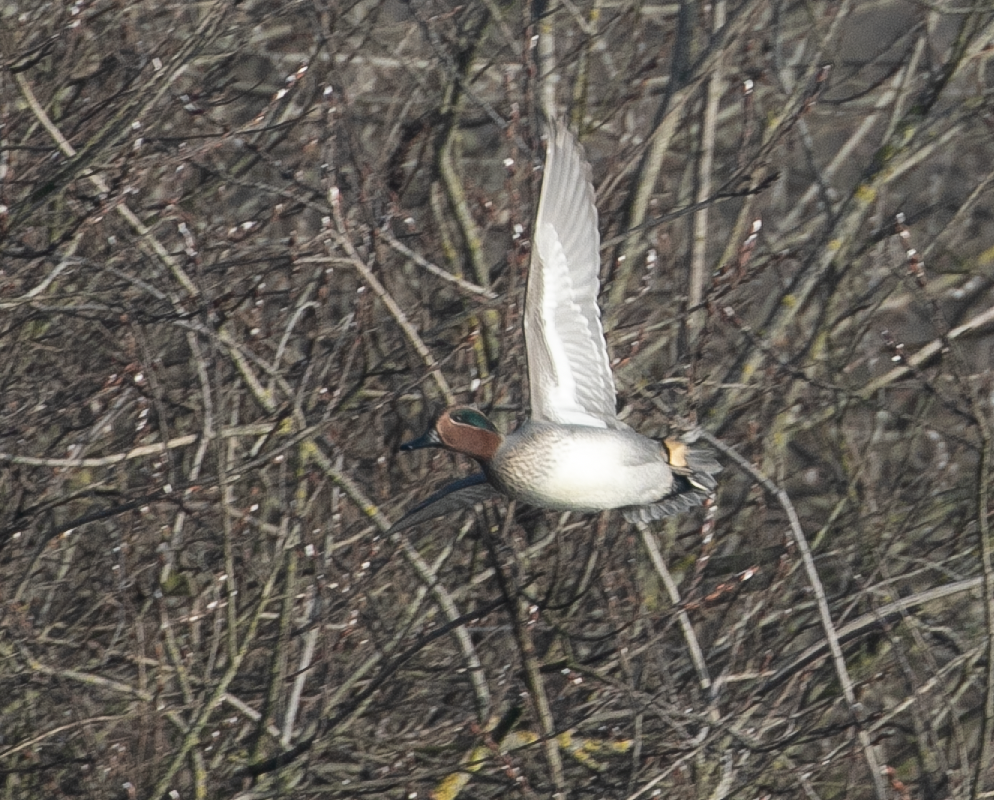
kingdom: Animalia
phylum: Chordata
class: Aves
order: Anseriformes
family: Anatidae
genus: Anas
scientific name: Anas crecca
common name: Eurasian teal
